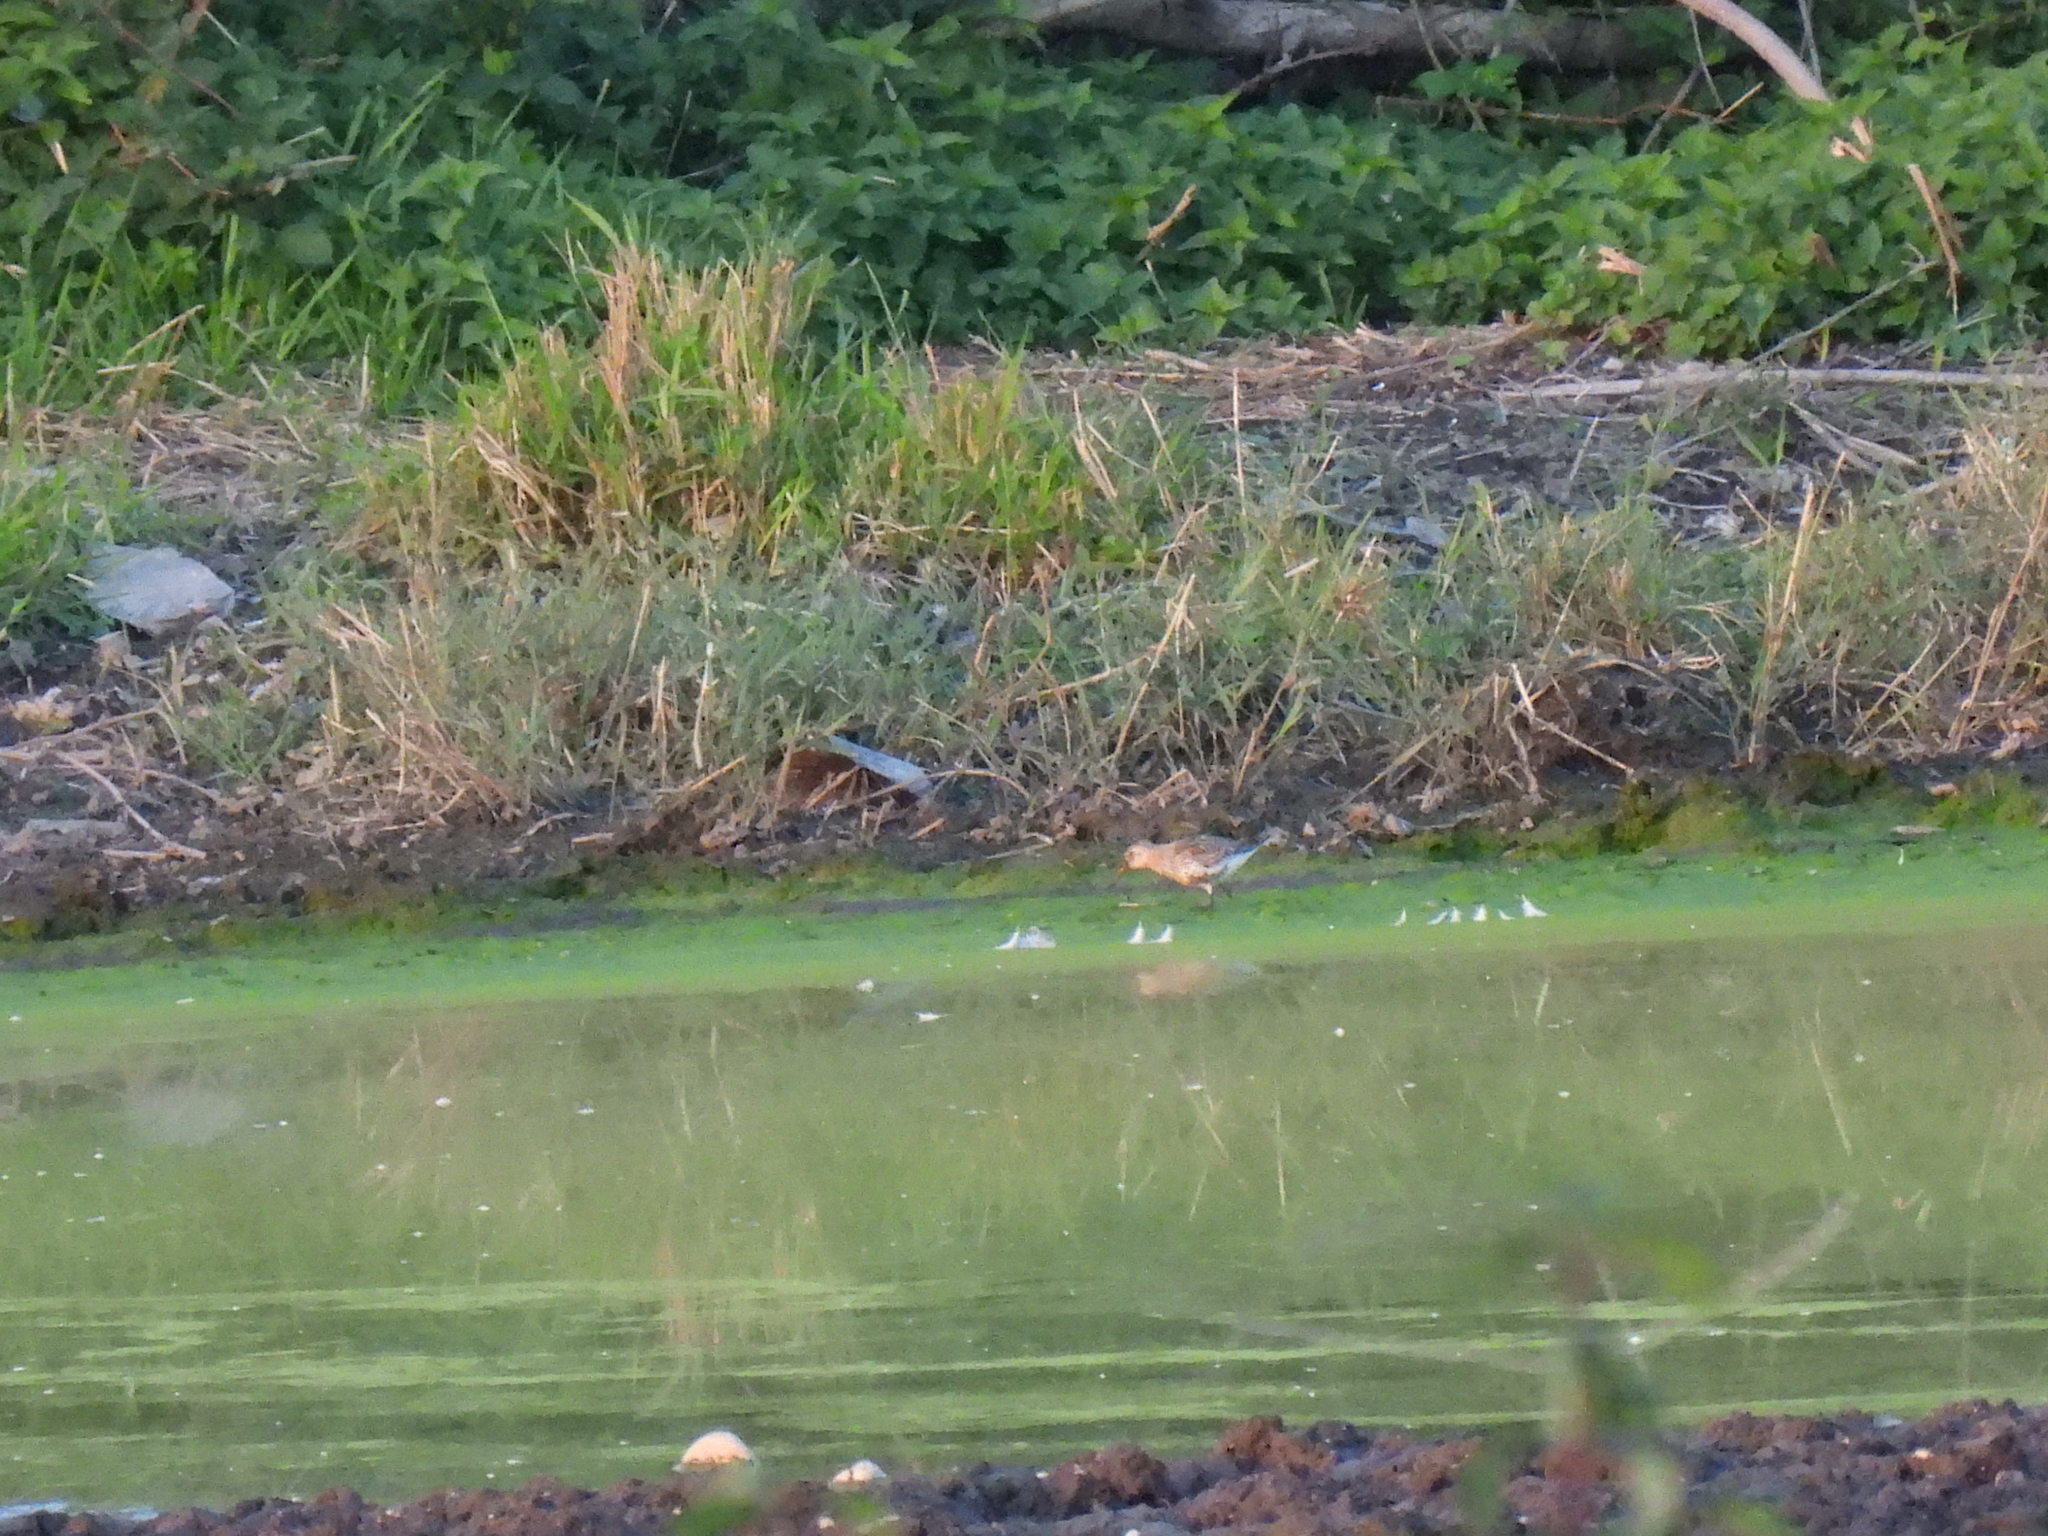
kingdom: Animalia
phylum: Chordata
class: Aves
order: Charadriiformes
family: Scolopacidae
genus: Calidris
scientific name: Calidris alpina
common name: Dunlin
